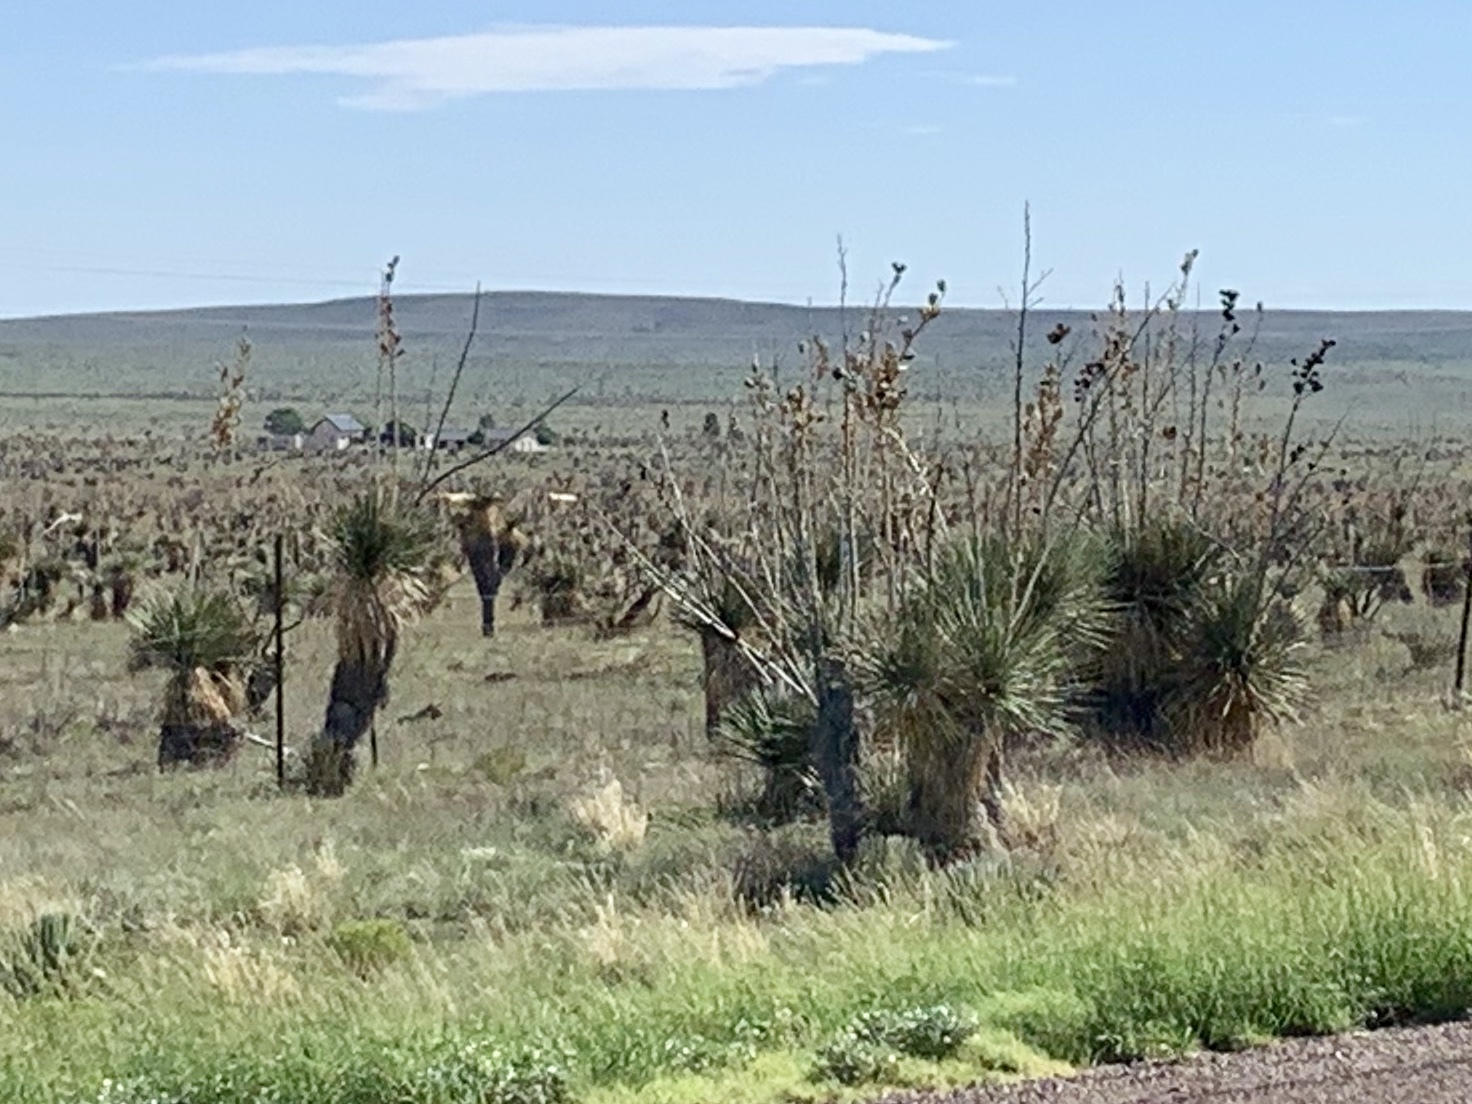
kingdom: Plantae
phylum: Tracheophyta
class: Liliopsida
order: Asparagales
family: Asparagaceae
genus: Yucca
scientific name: Yucca elata
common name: Palmella
